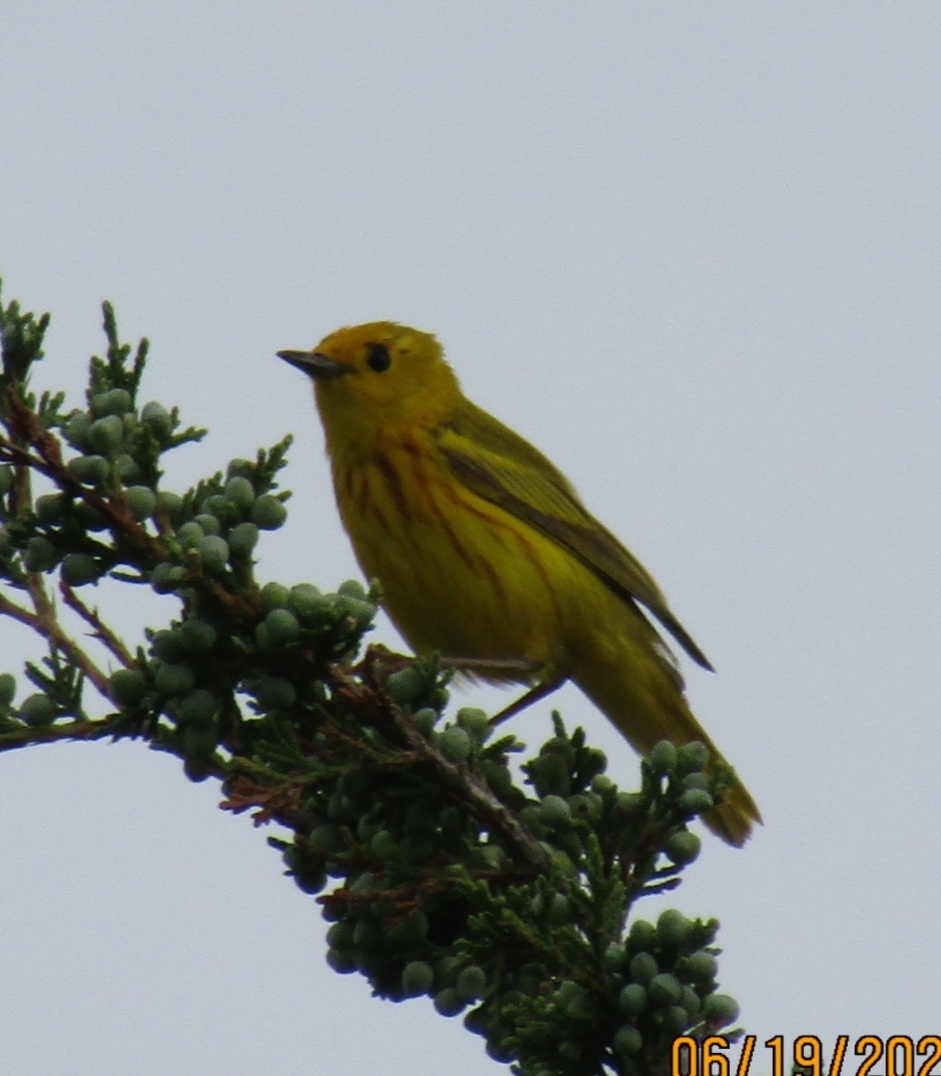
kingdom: Animalia
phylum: Chordata
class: Aves
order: Passeriformes
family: Parulidae
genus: Setophaga
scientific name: Setophaga petechia
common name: Yellow warbler
